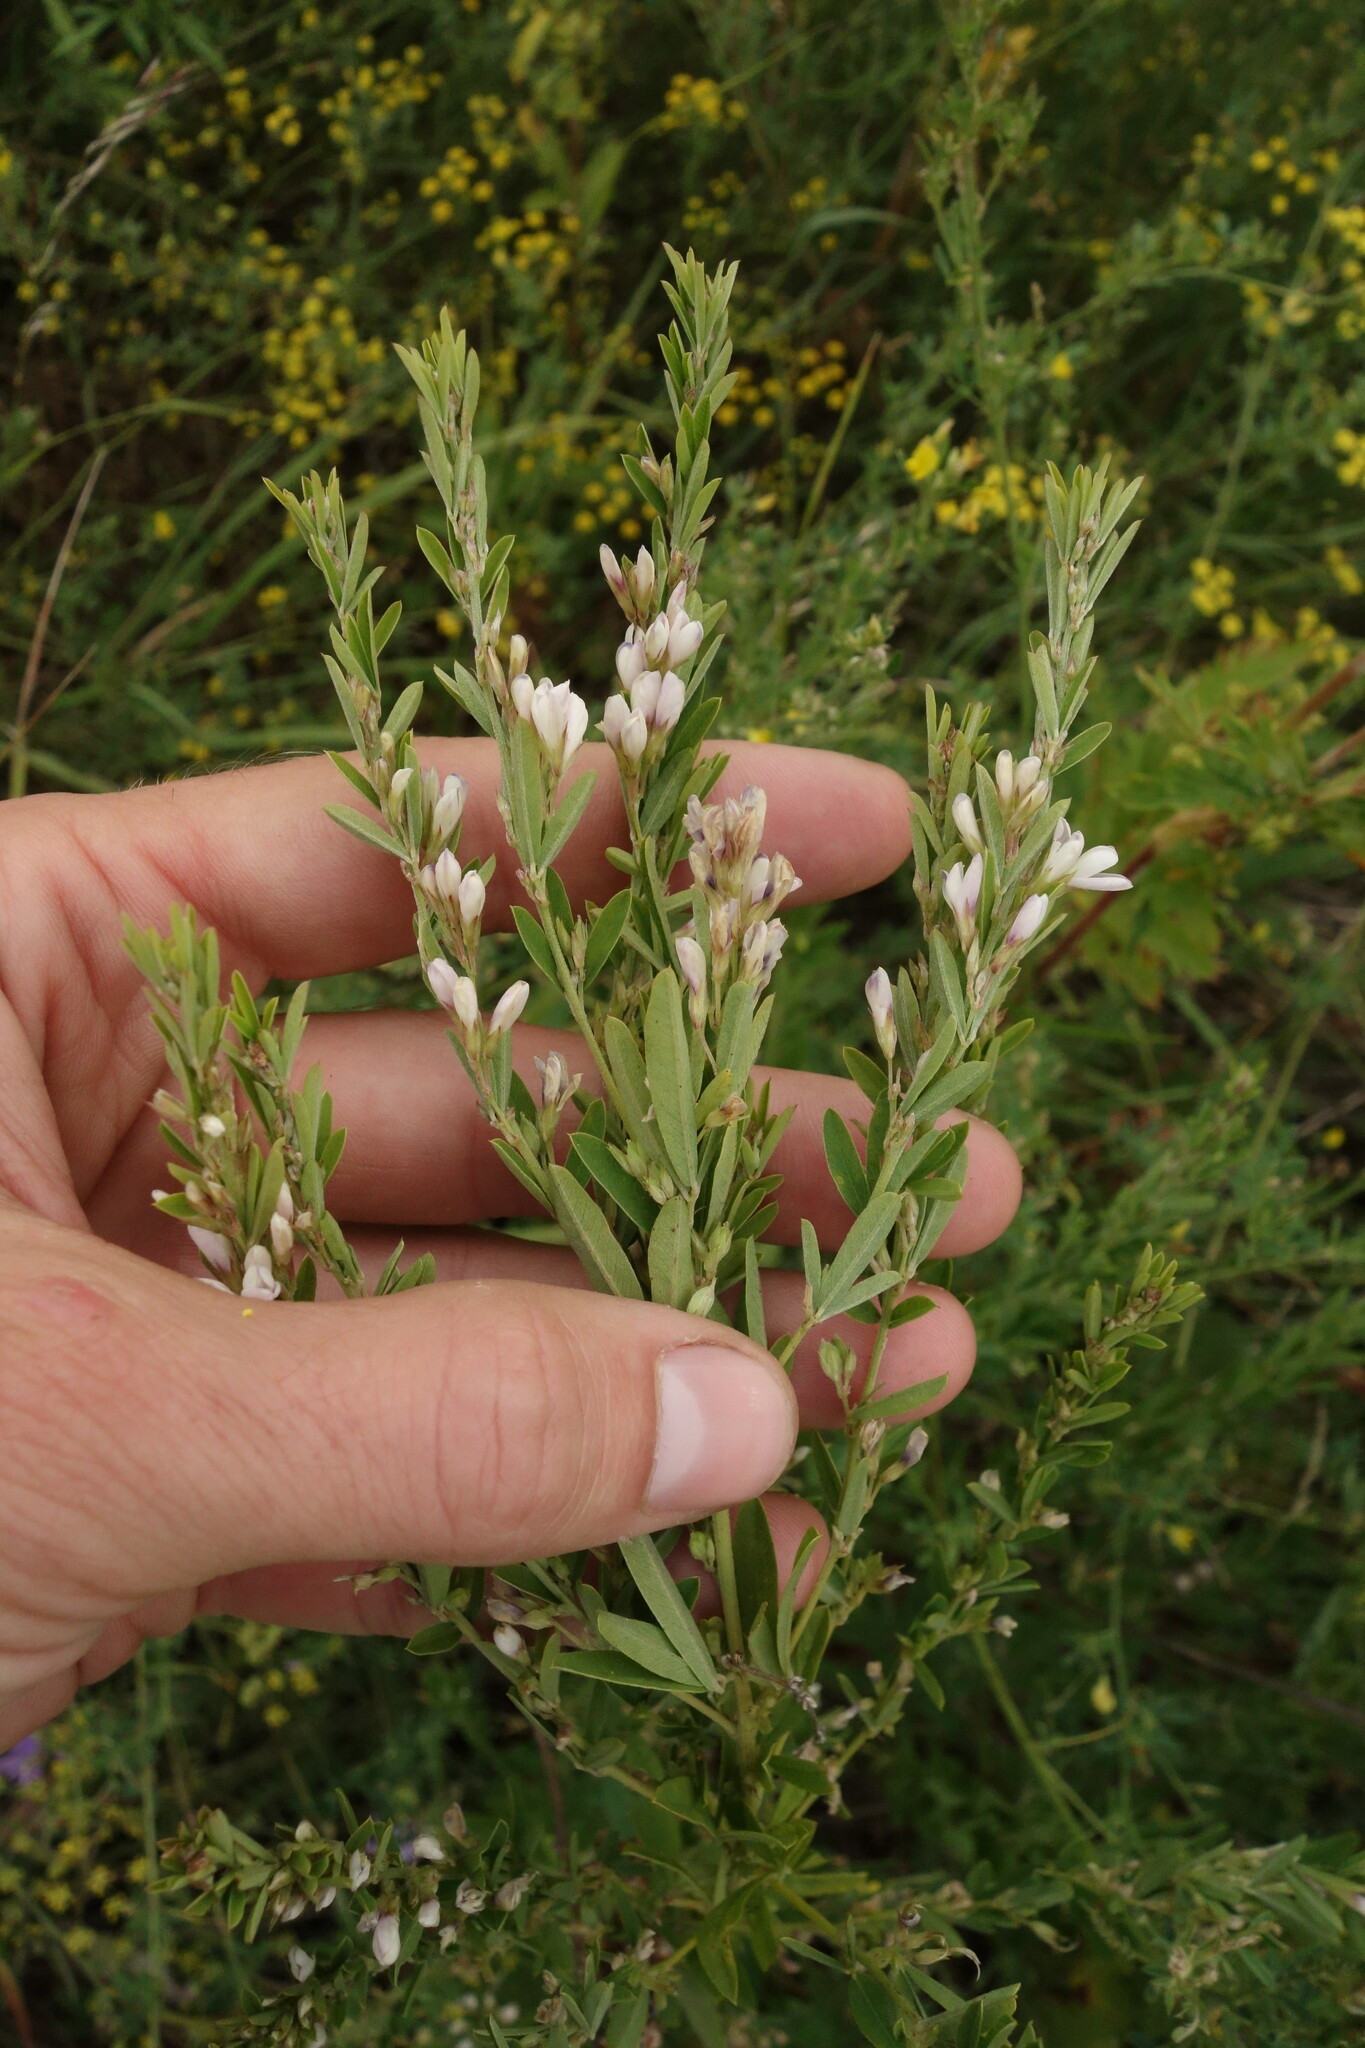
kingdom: Plantae
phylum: Tracheophyta
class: Magnoliopsida
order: Fabales
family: Fabaceae
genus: Lespedeza
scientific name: Lespedeza juncea
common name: Siberian lespedeza
